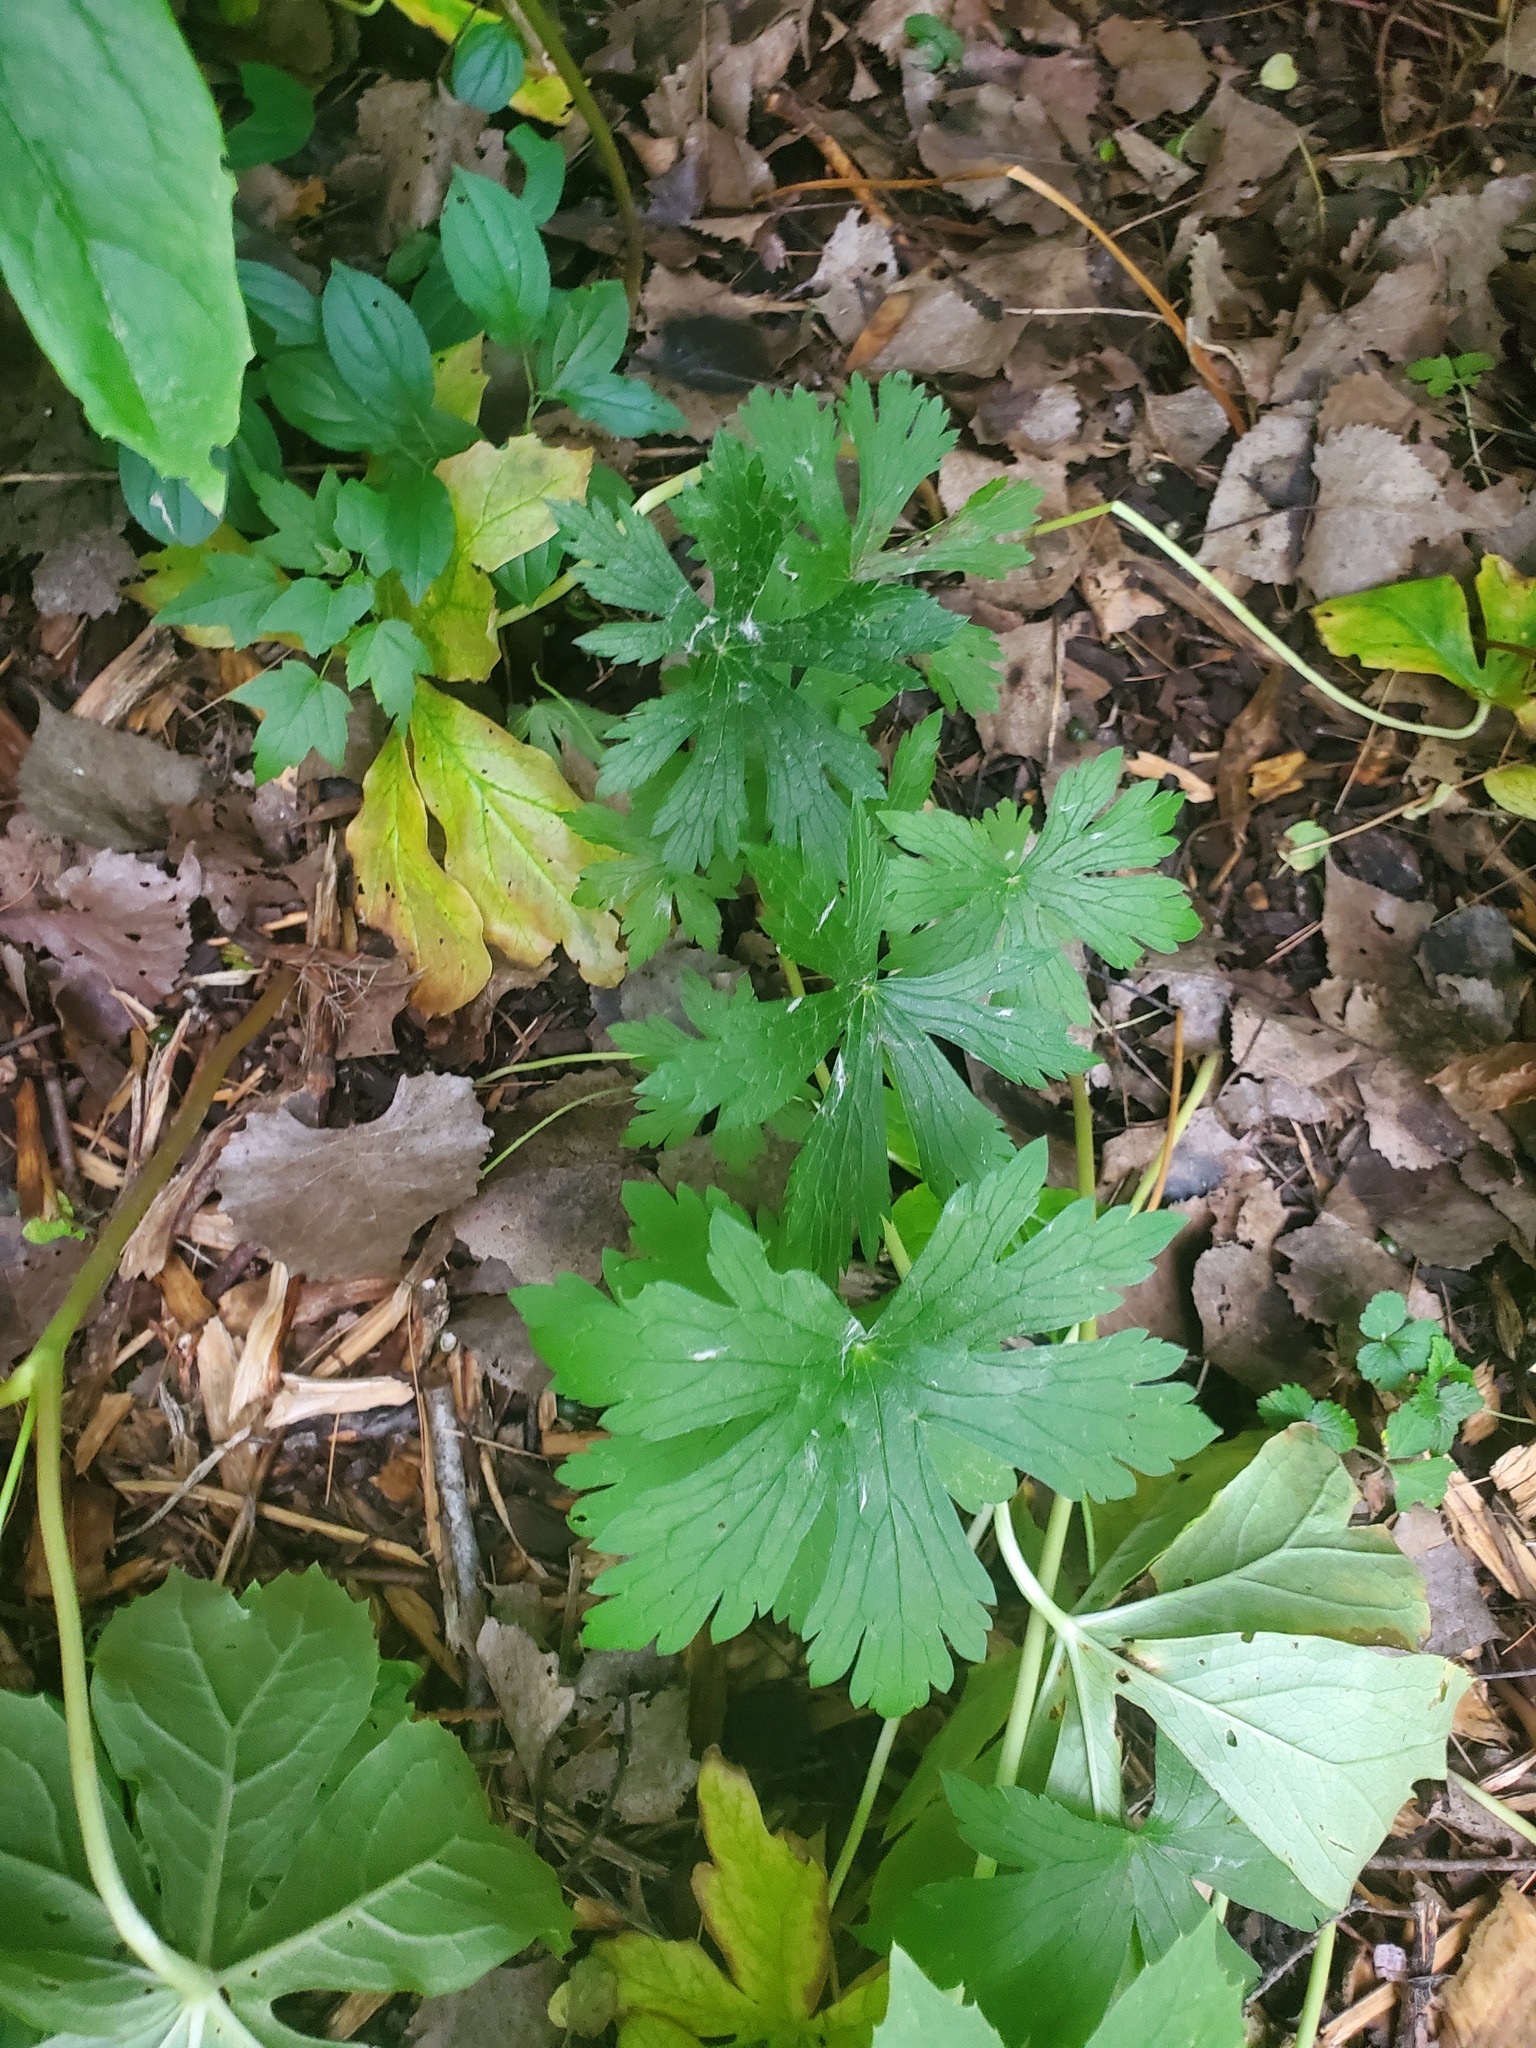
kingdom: Plantae
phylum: Tracheophyta
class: Magnoliopsida
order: Geraniales
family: Geraniaceae
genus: Geranium
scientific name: Geranium maculatum
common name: Spotted geranium
